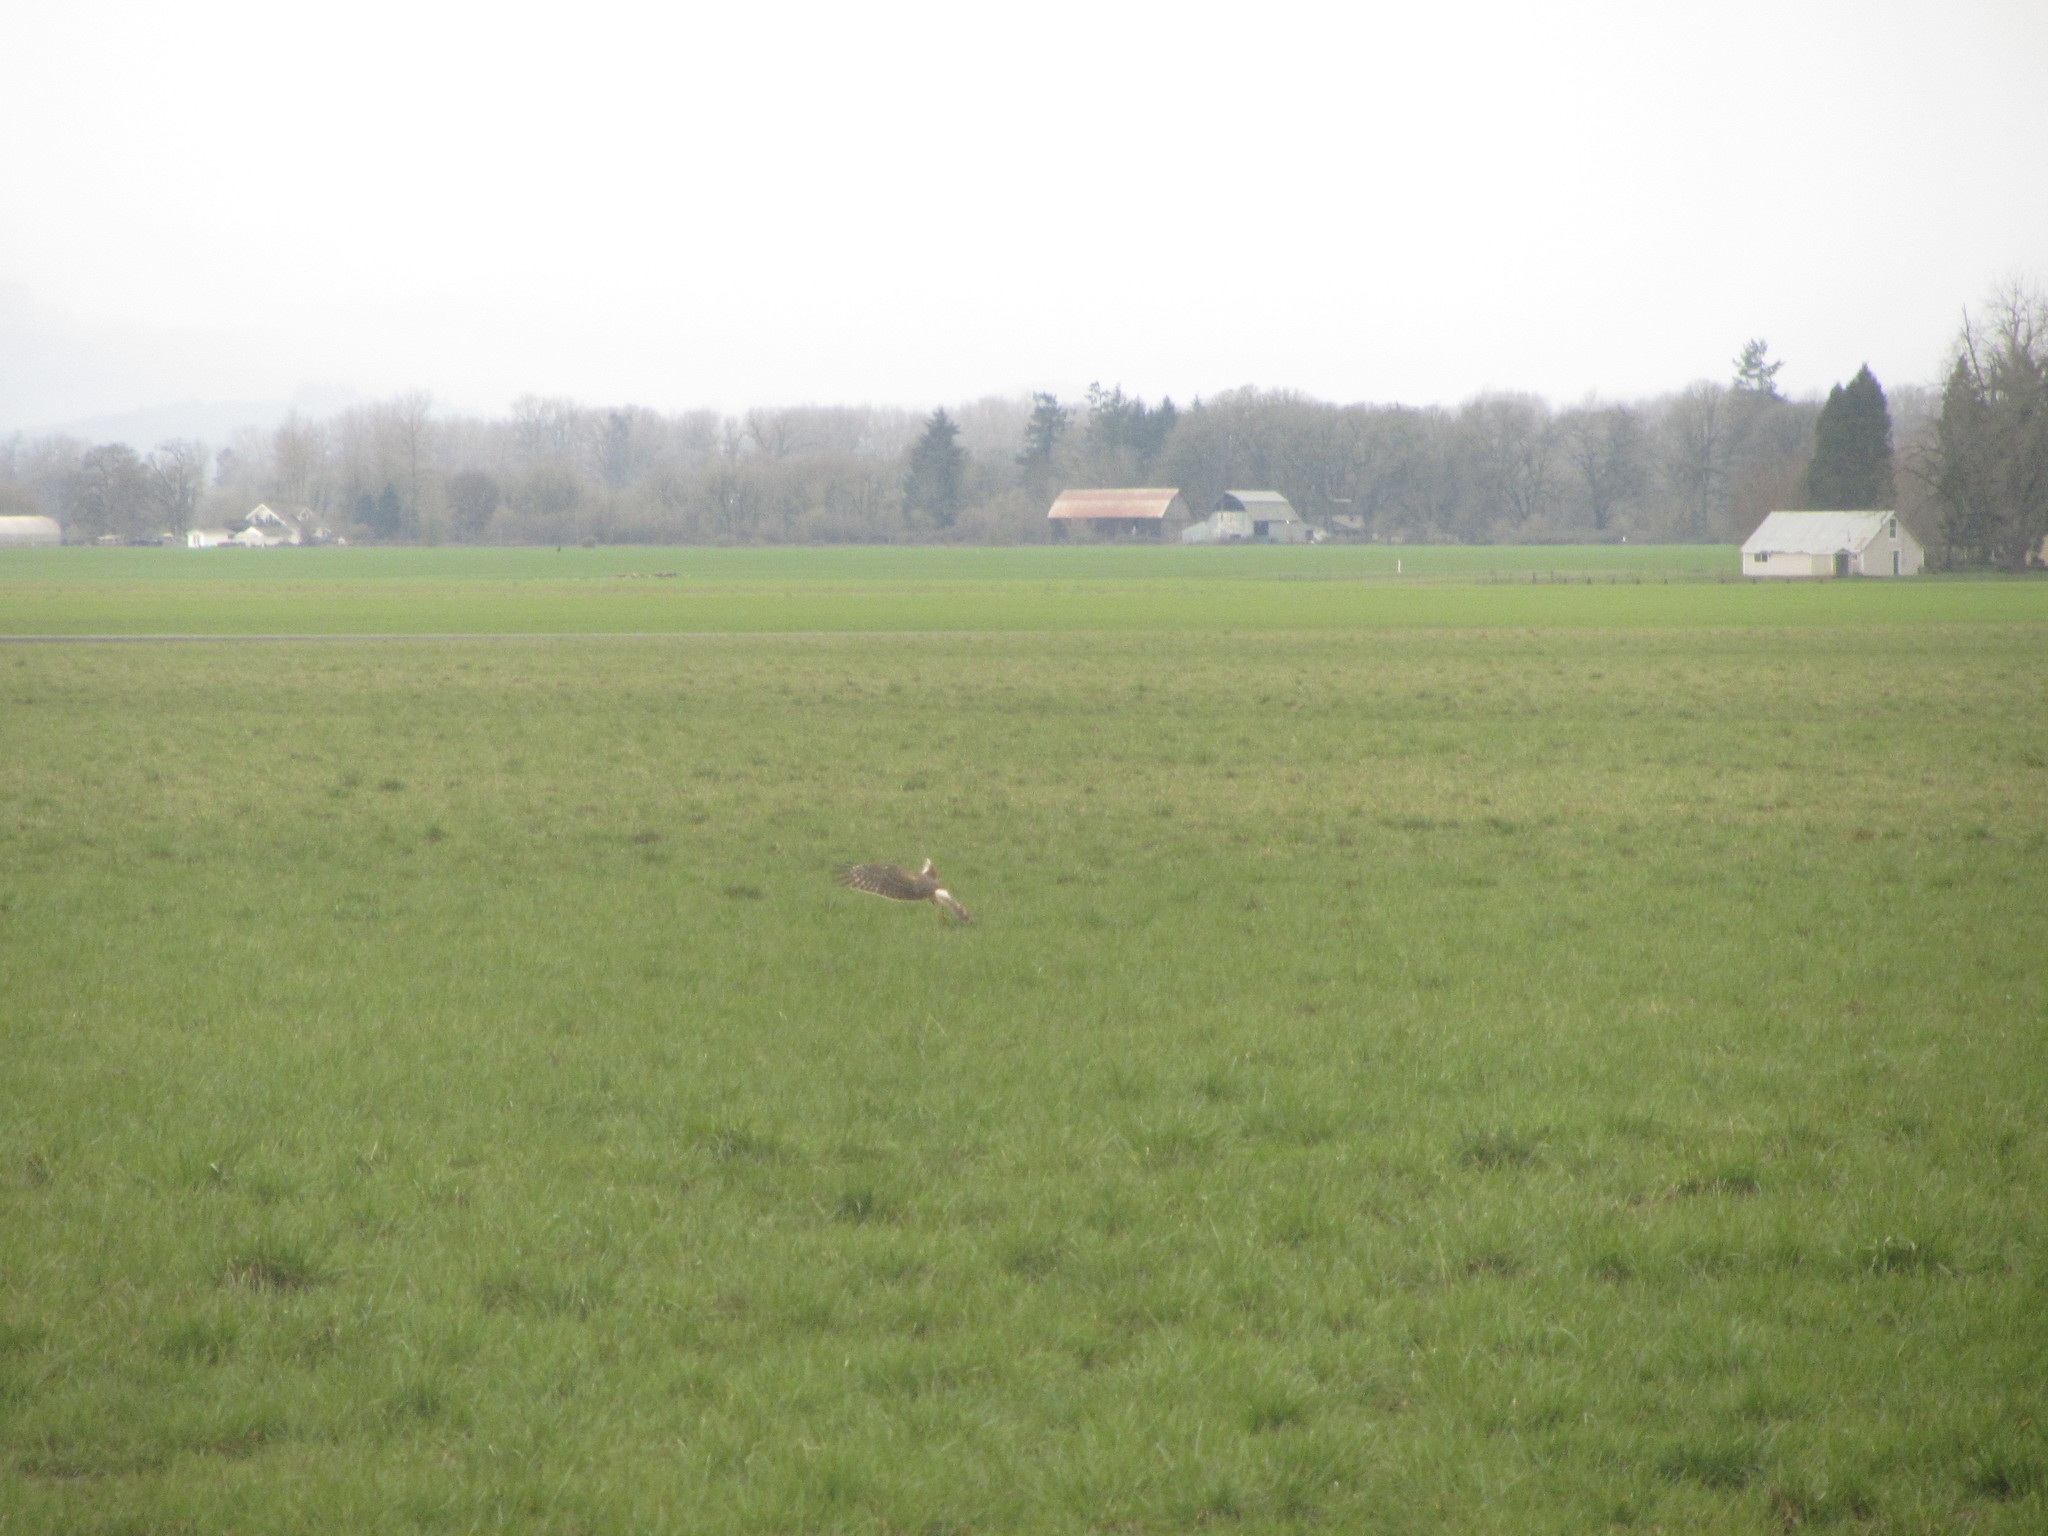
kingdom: Animalia
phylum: Chordata
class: Aves
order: Accipitriformes
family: Accipitridae
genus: Circus
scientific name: Circus cyaneus
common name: Hen harrier
